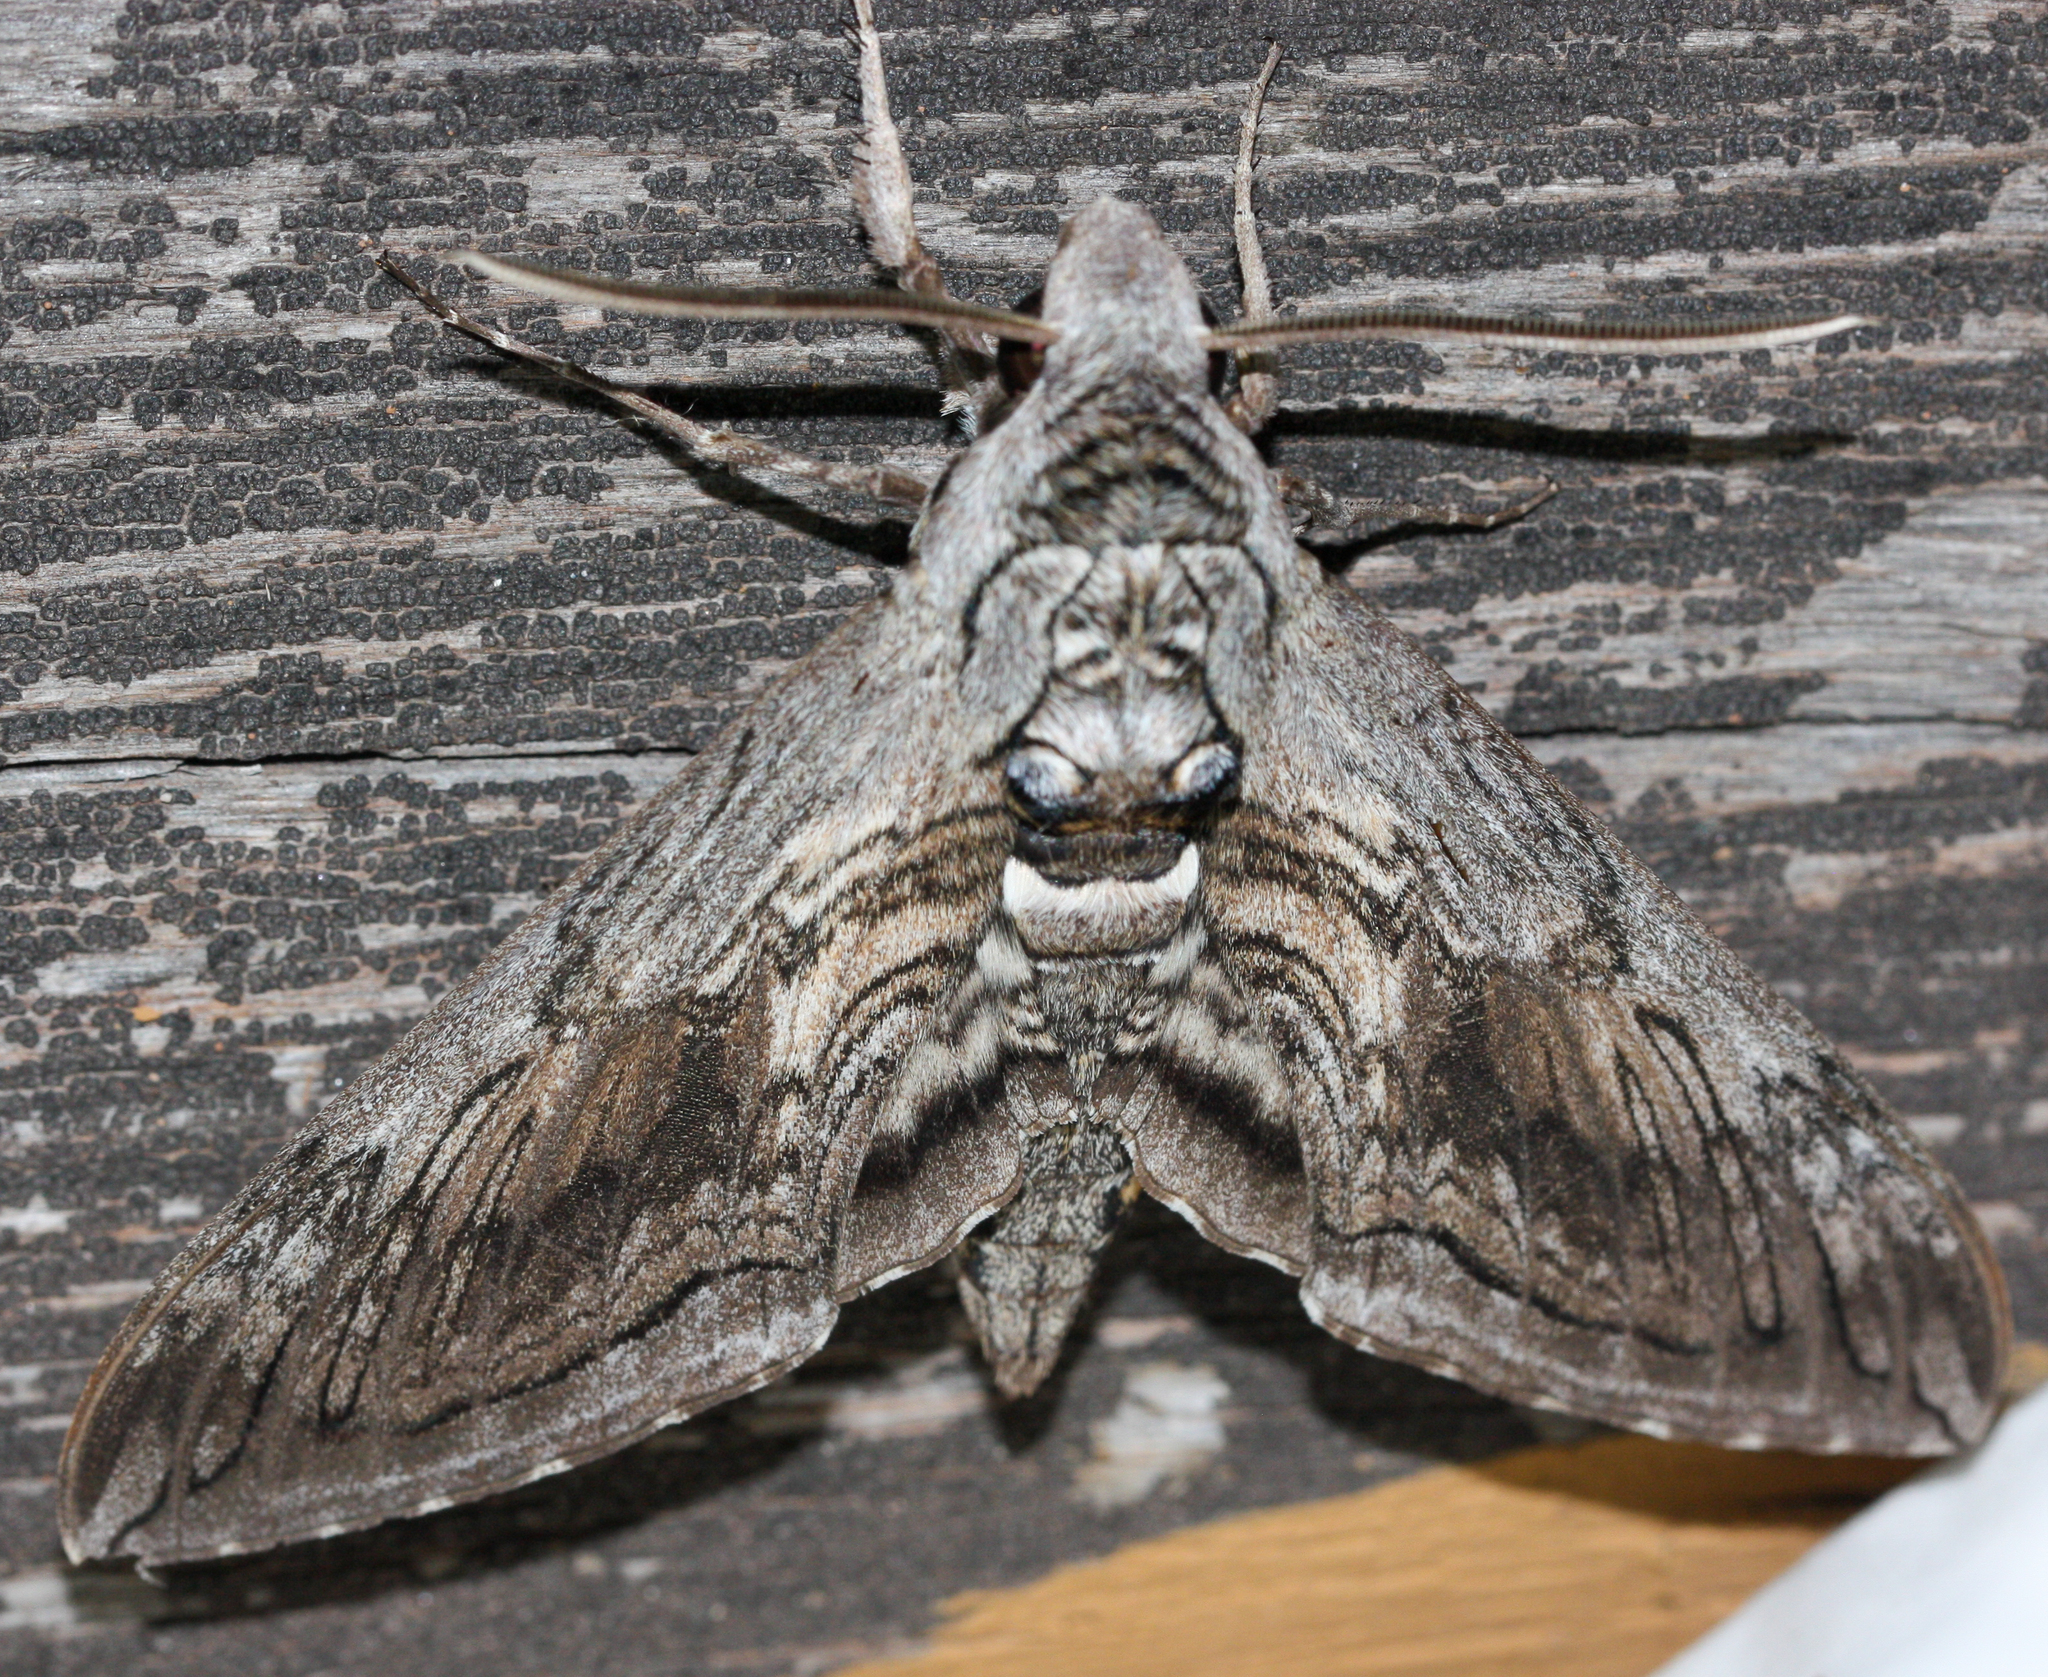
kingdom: Animalia
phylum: Arthropoda
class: Insecta
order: Lepidoptera
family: Sphingidae
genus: Manduca
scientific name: Manduca quinquemaculatus
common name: Five-spotted hawk-moth
